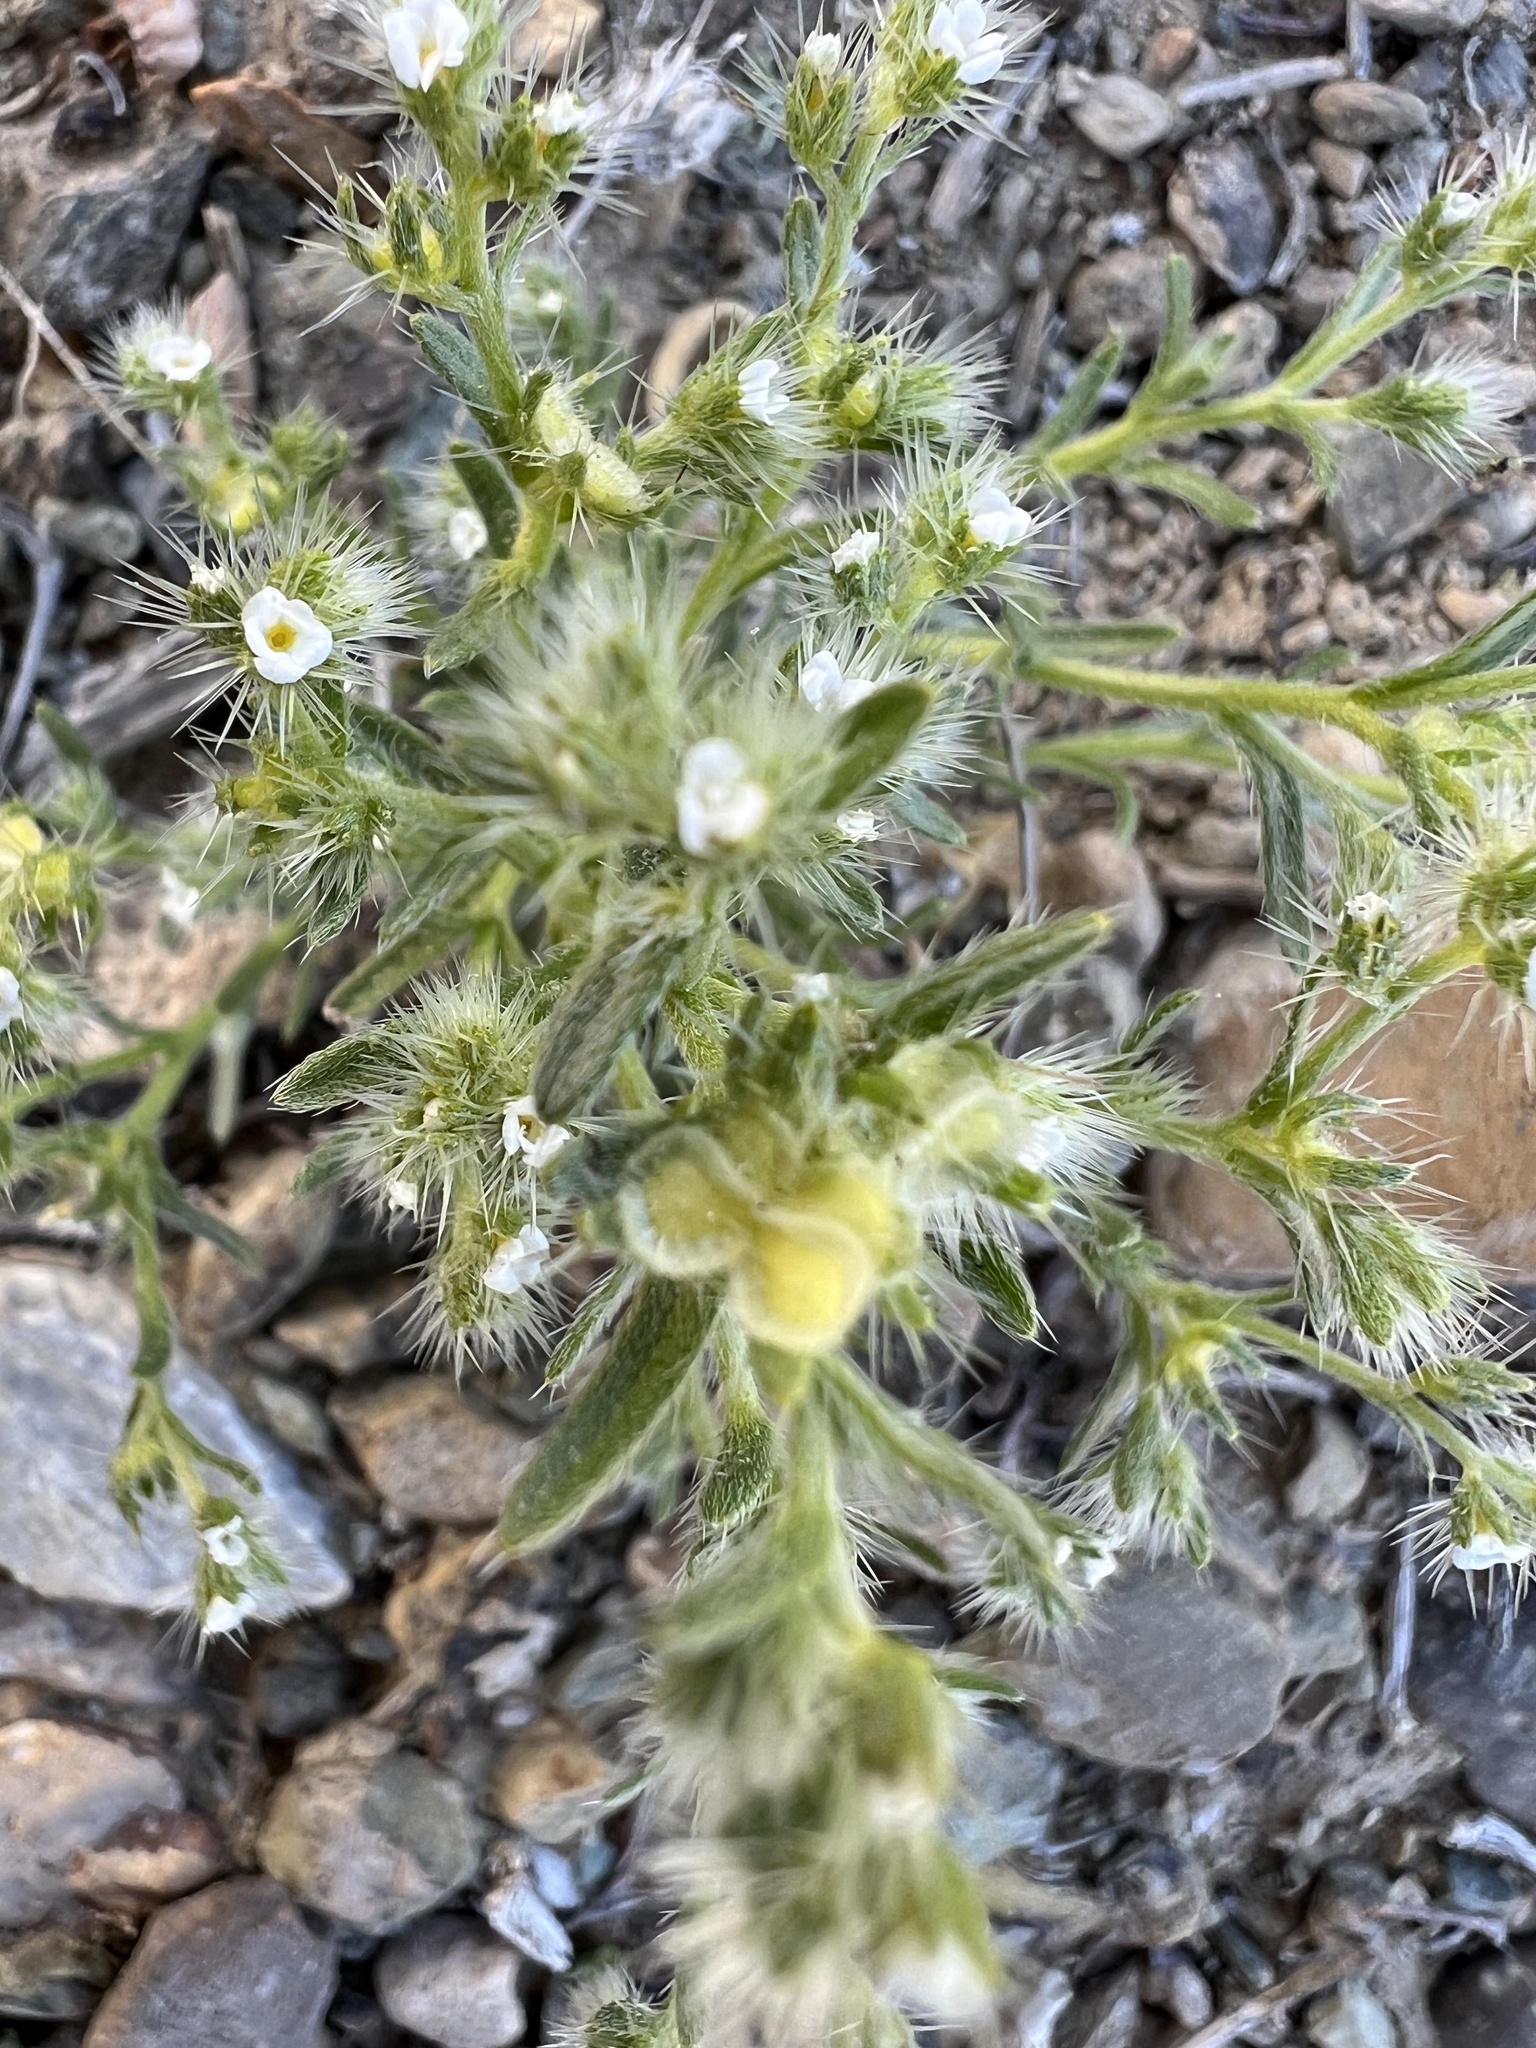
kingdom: Plantae
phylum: Tracheophyta
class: Magnoliopsida
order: Boraginales
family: Boraginaceae
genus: Pectocarya
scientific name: Pectocarya setosa
